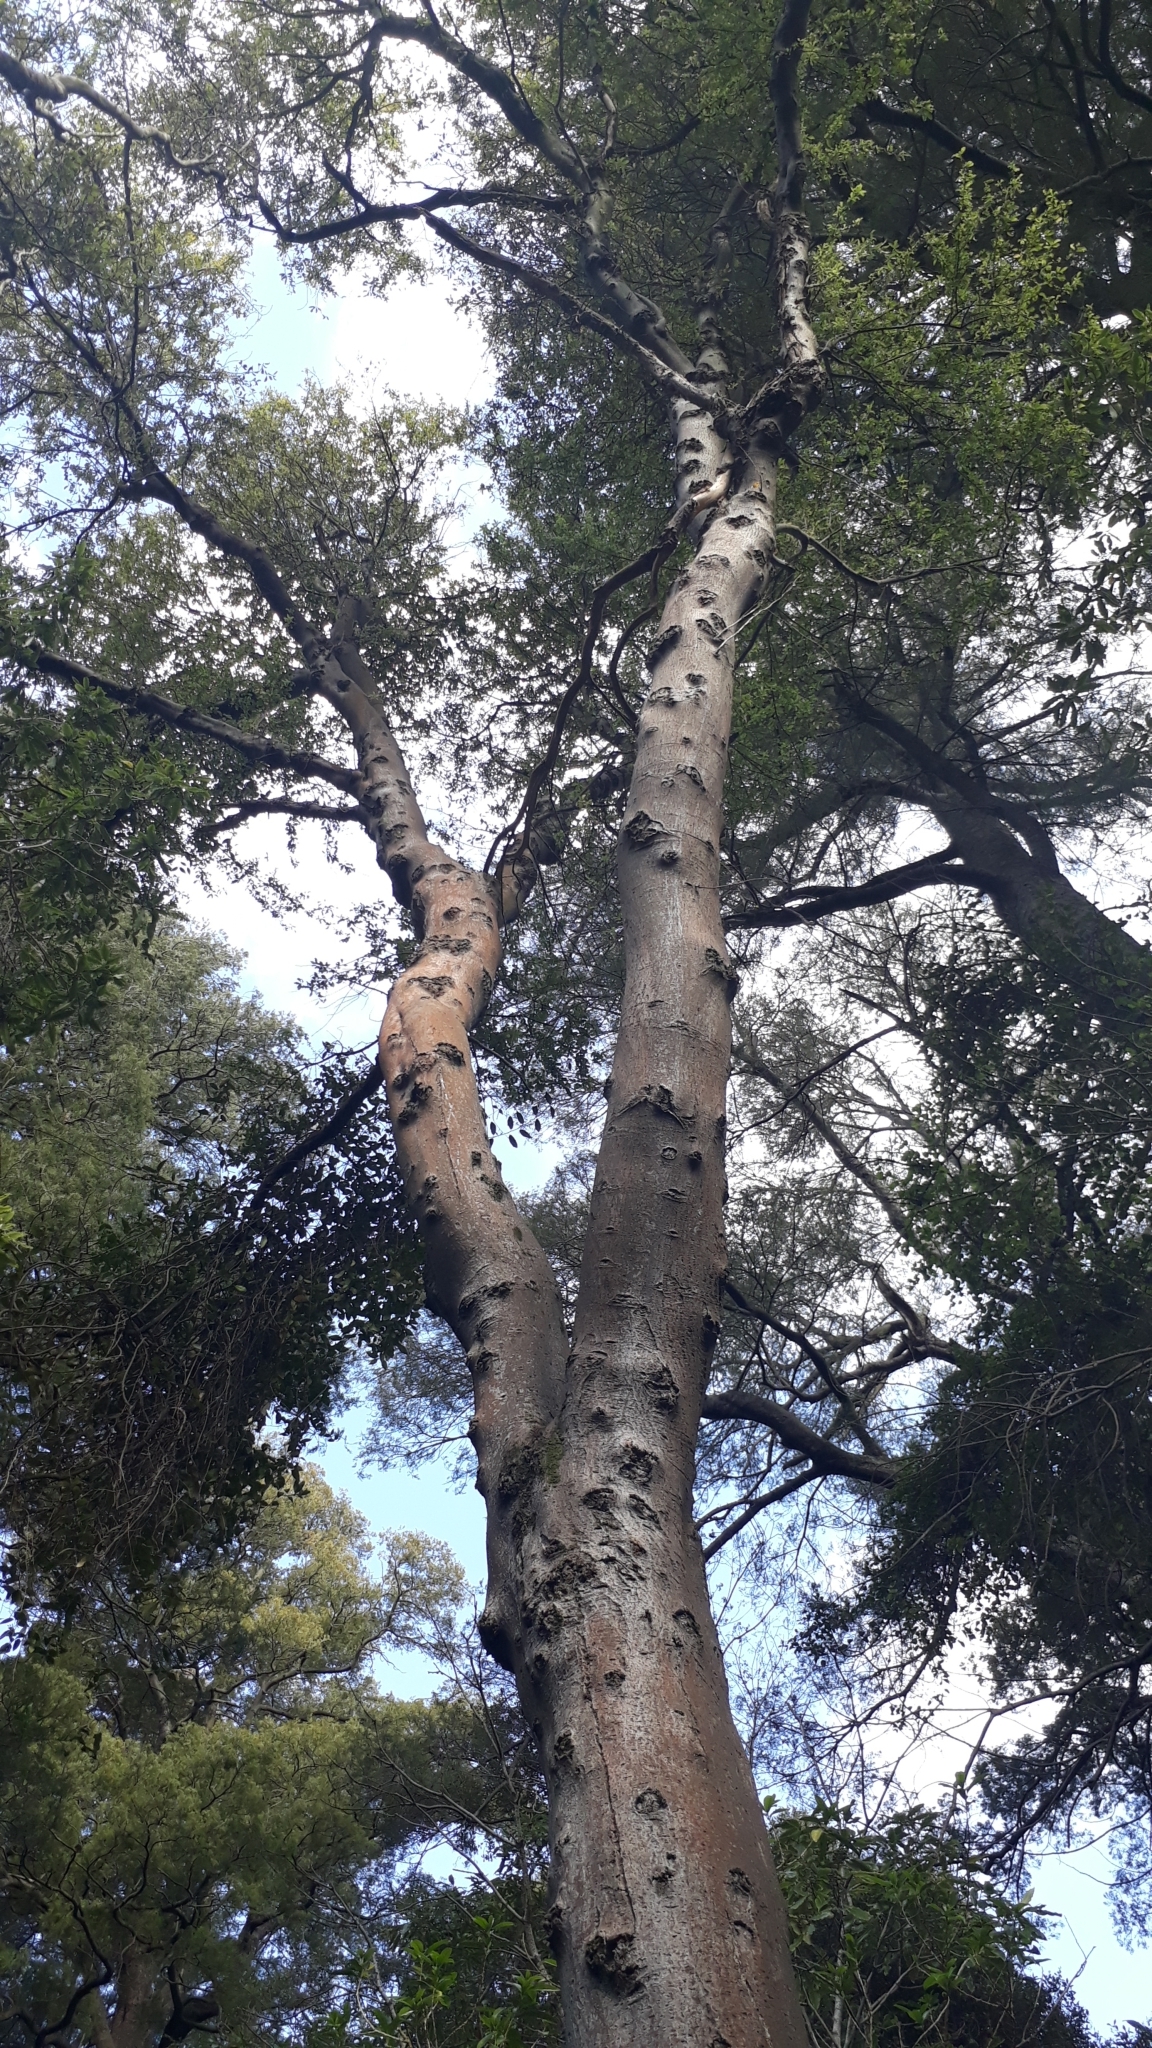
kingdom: Plantae
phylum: Tracheophyta
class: Magnoliopsida
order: Malvales
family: Malvaceae
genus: Hoheria
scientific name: Hoheria angustifolia
